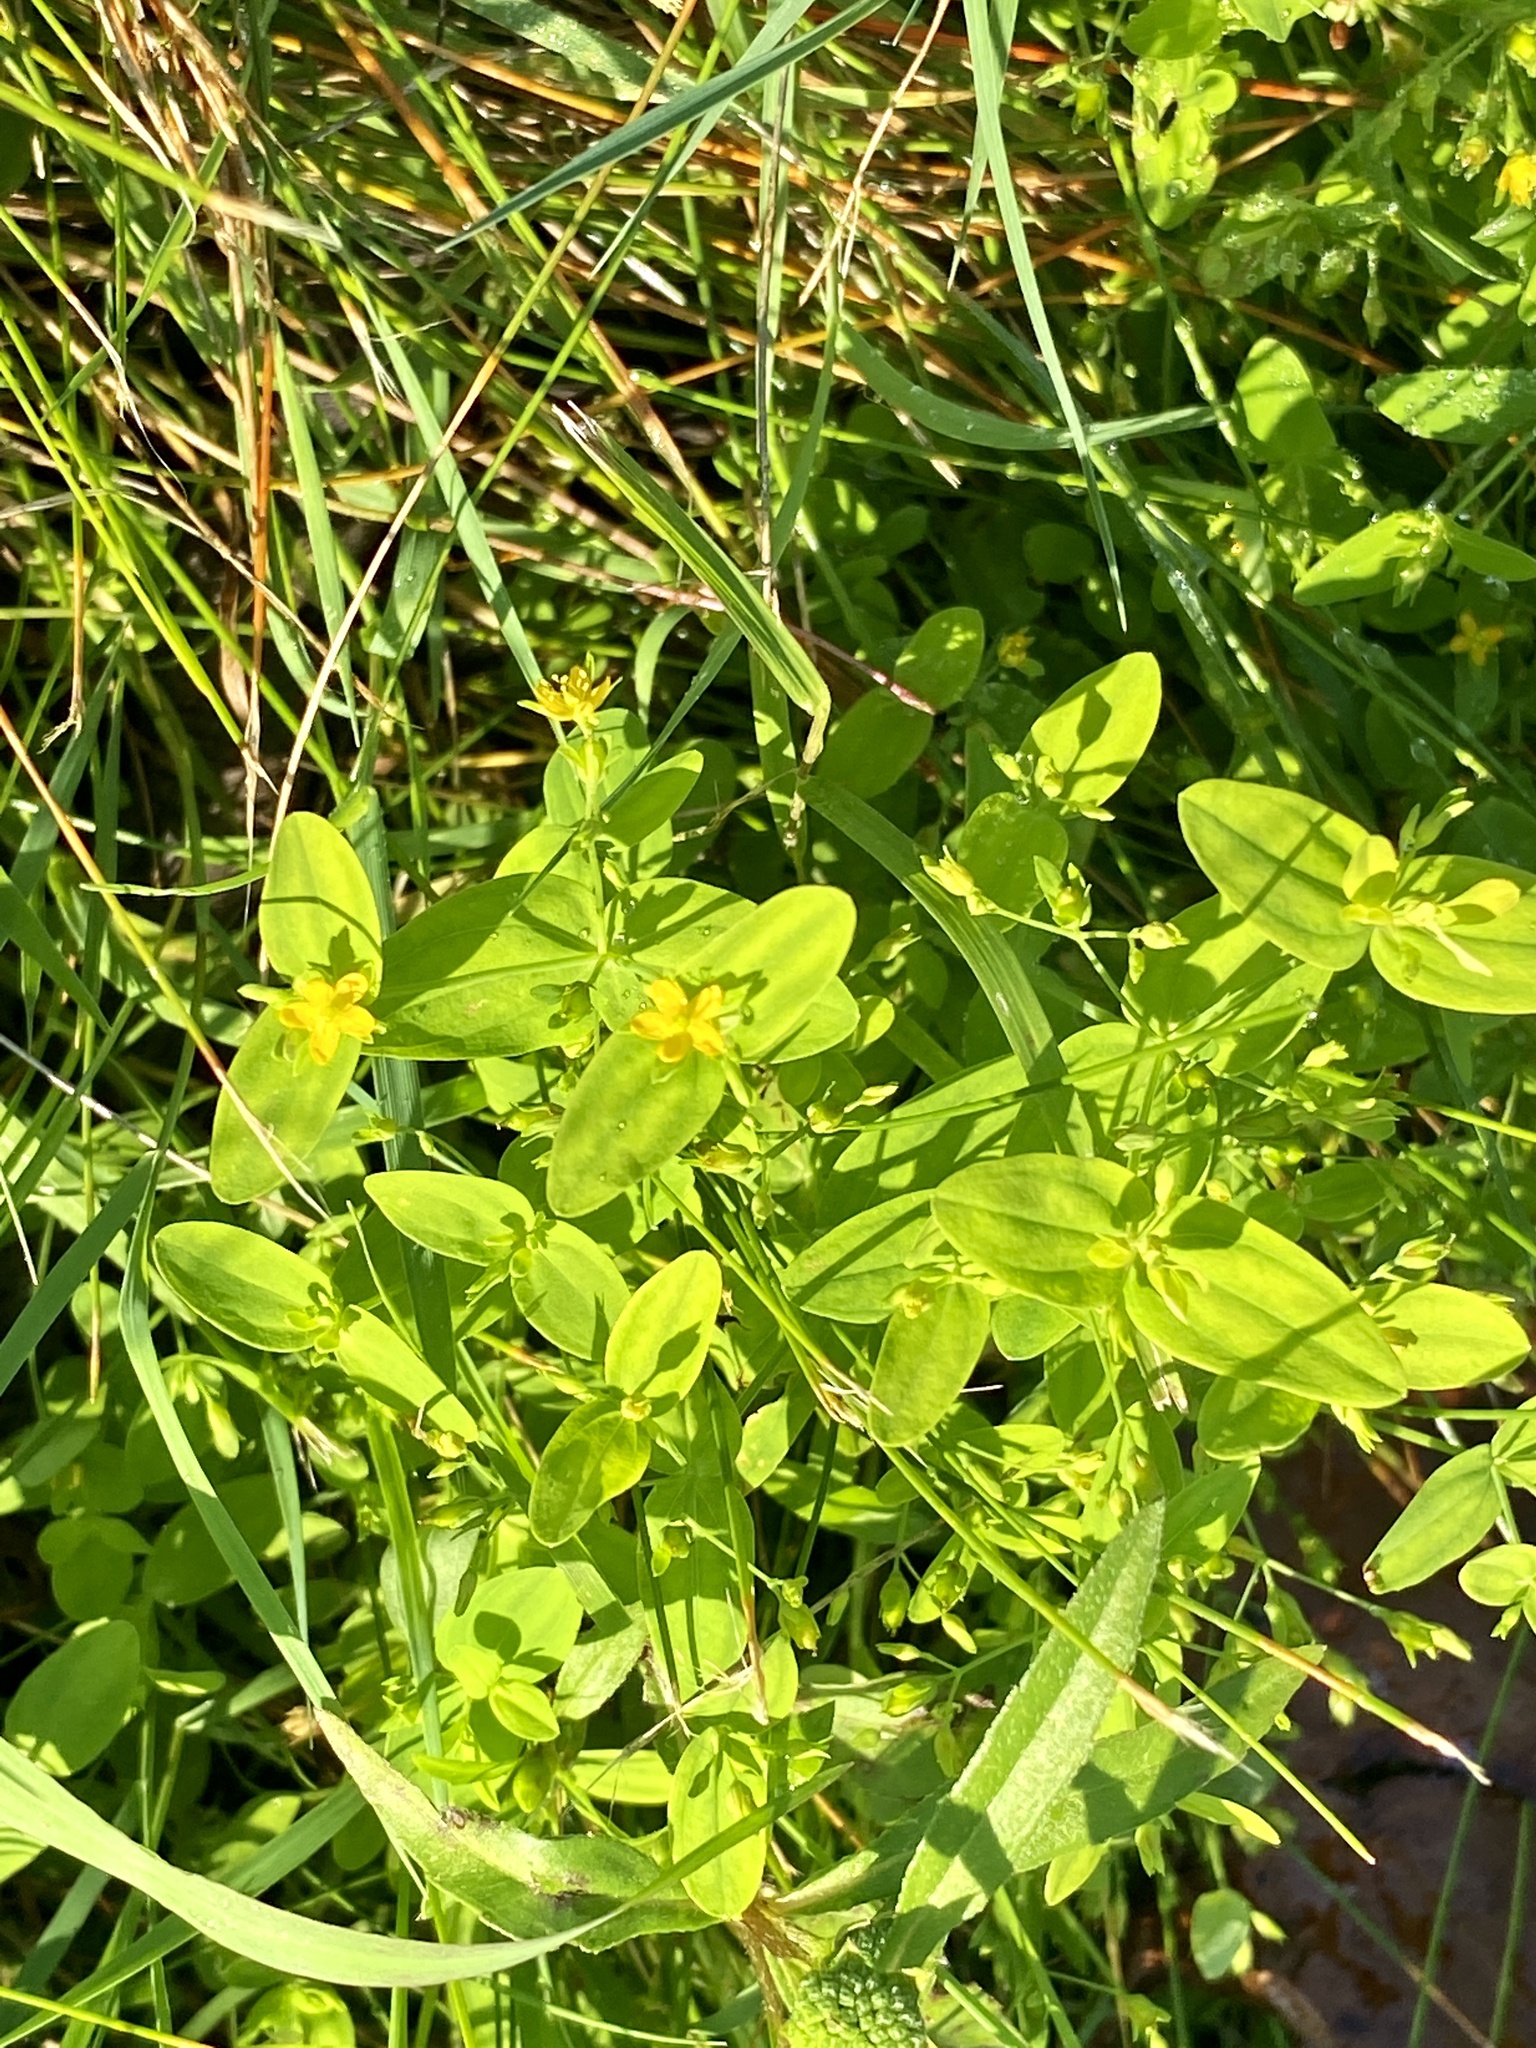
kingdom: Plantae
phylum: Tracheophyta
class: Magnoliopsida
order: Malpighiales
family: Hypericaceae
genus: Hypericum
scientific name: Hypericum mutilum
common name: Dwarf st. john's-wort
